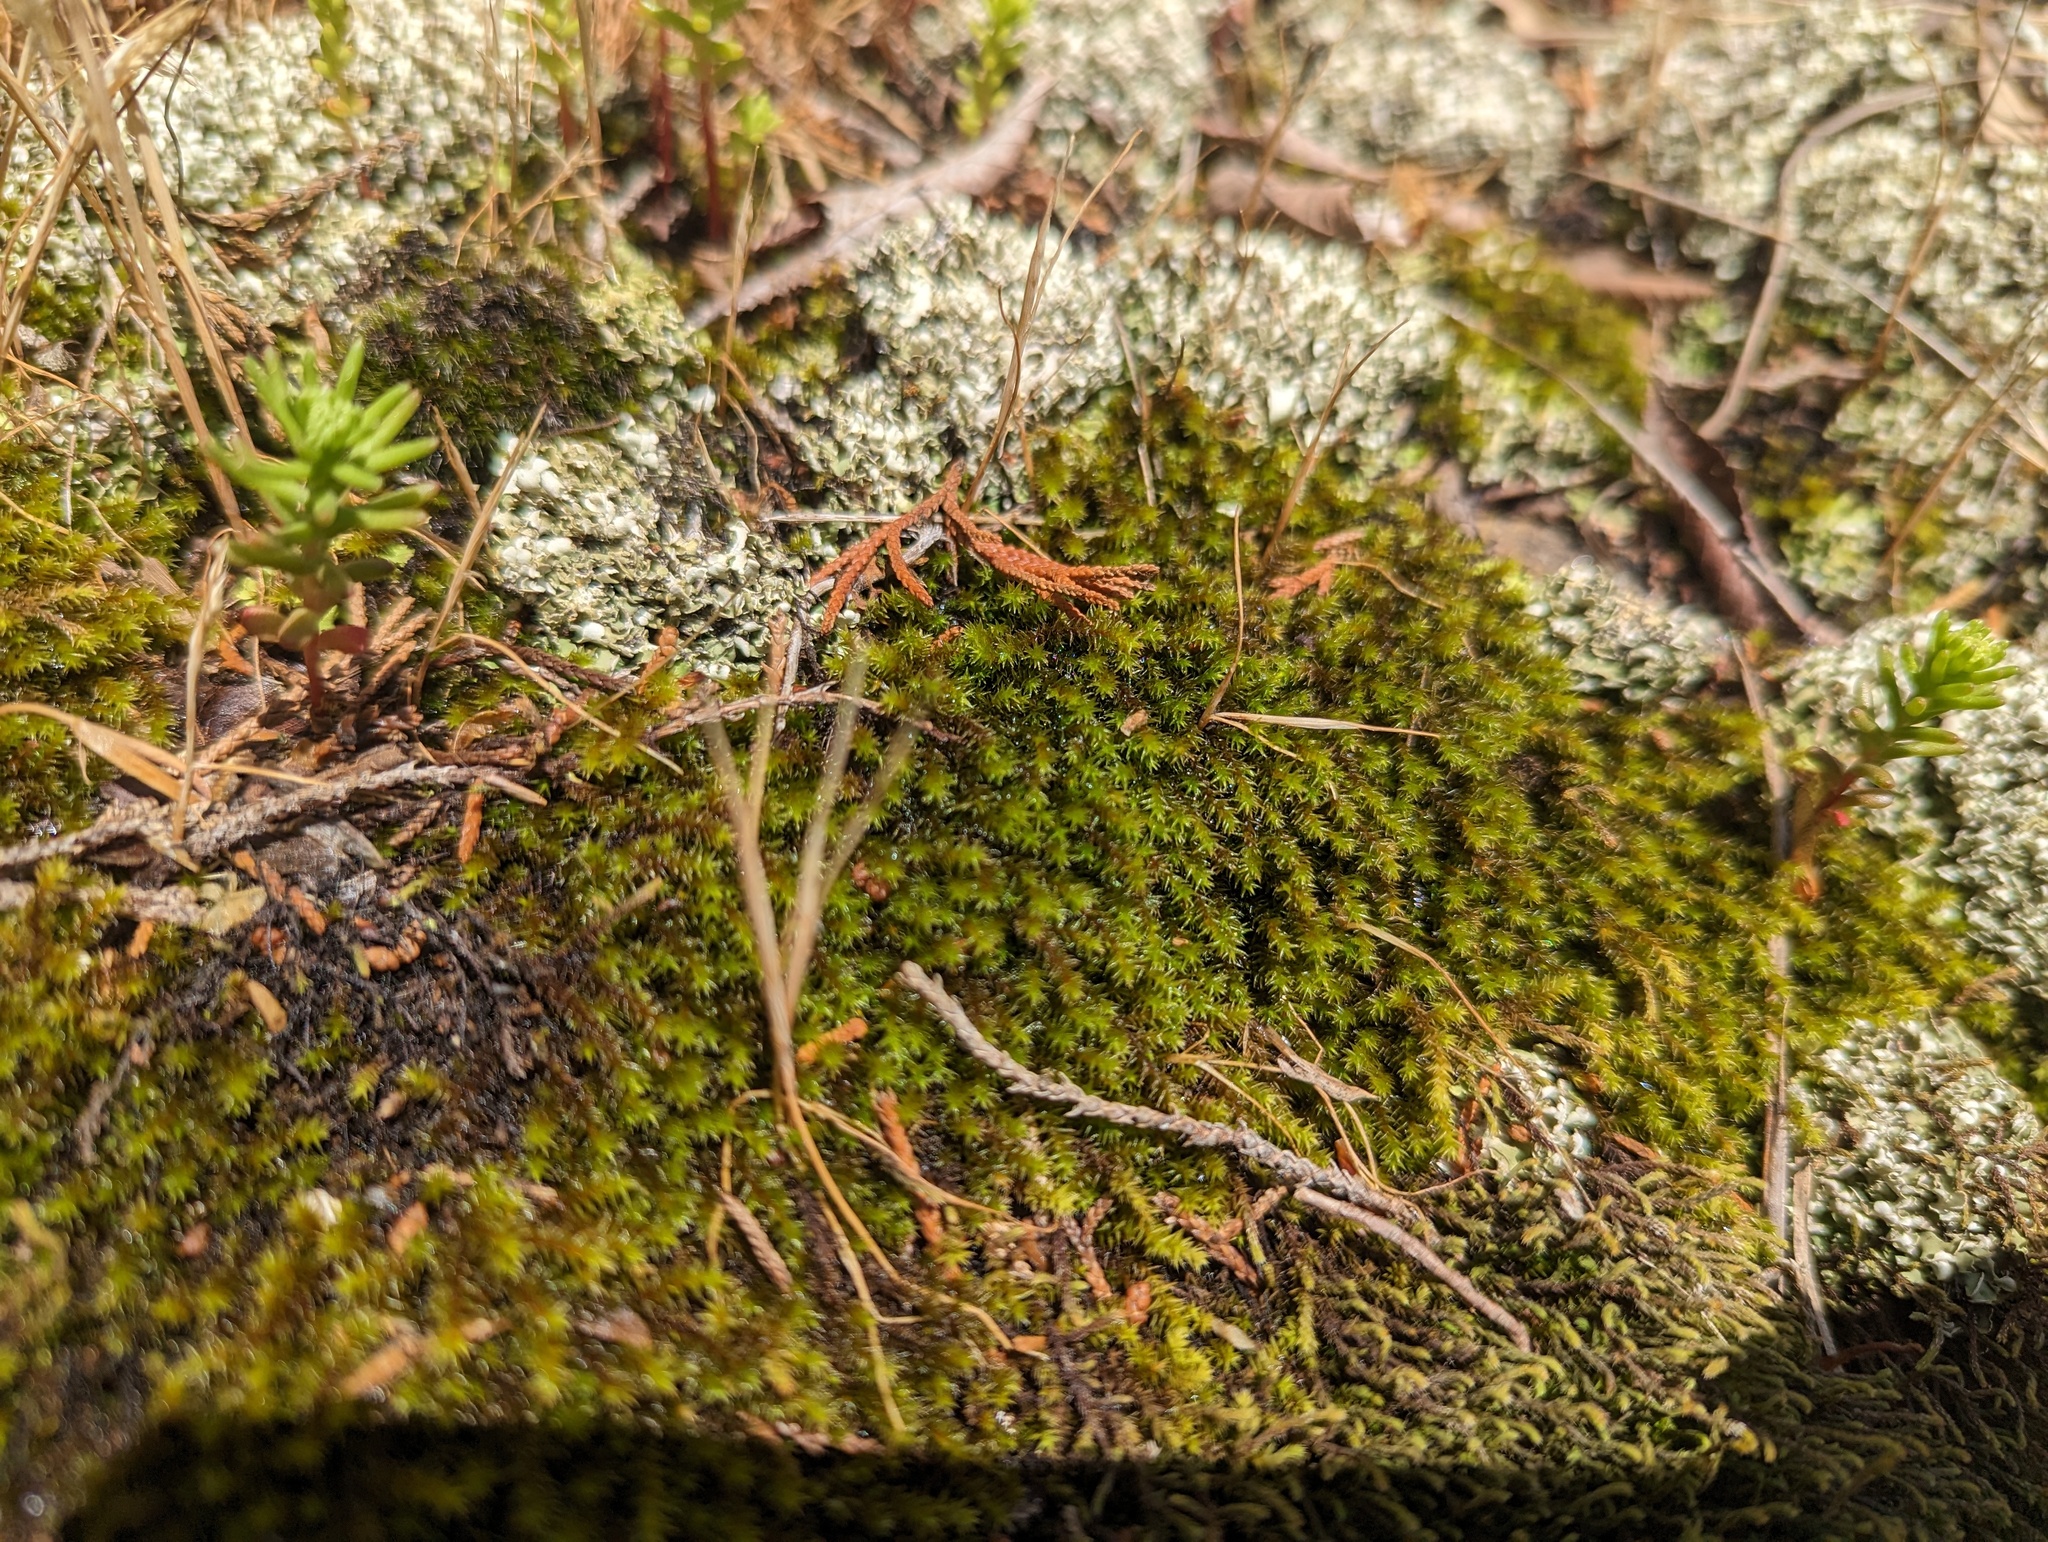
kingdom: Plantae
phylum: Bryophyta
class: Bryopsida
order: Hedwigiales
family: Hedwigiaceae
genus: Hedwigia
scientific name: Hedwigia ciliata
